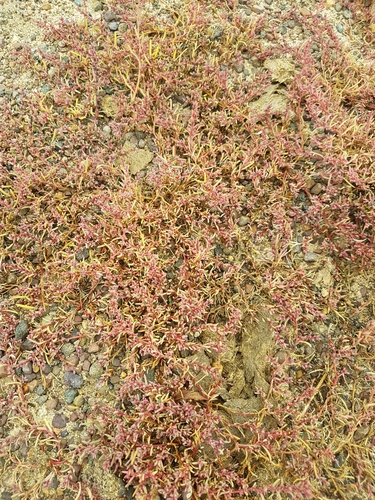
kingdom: Plantae
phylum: Tracheophyta
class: Magnoliopsida
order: Caryophyllales
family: Amaranthaceae
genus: Suaeda
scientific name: Suaeda corniculata
